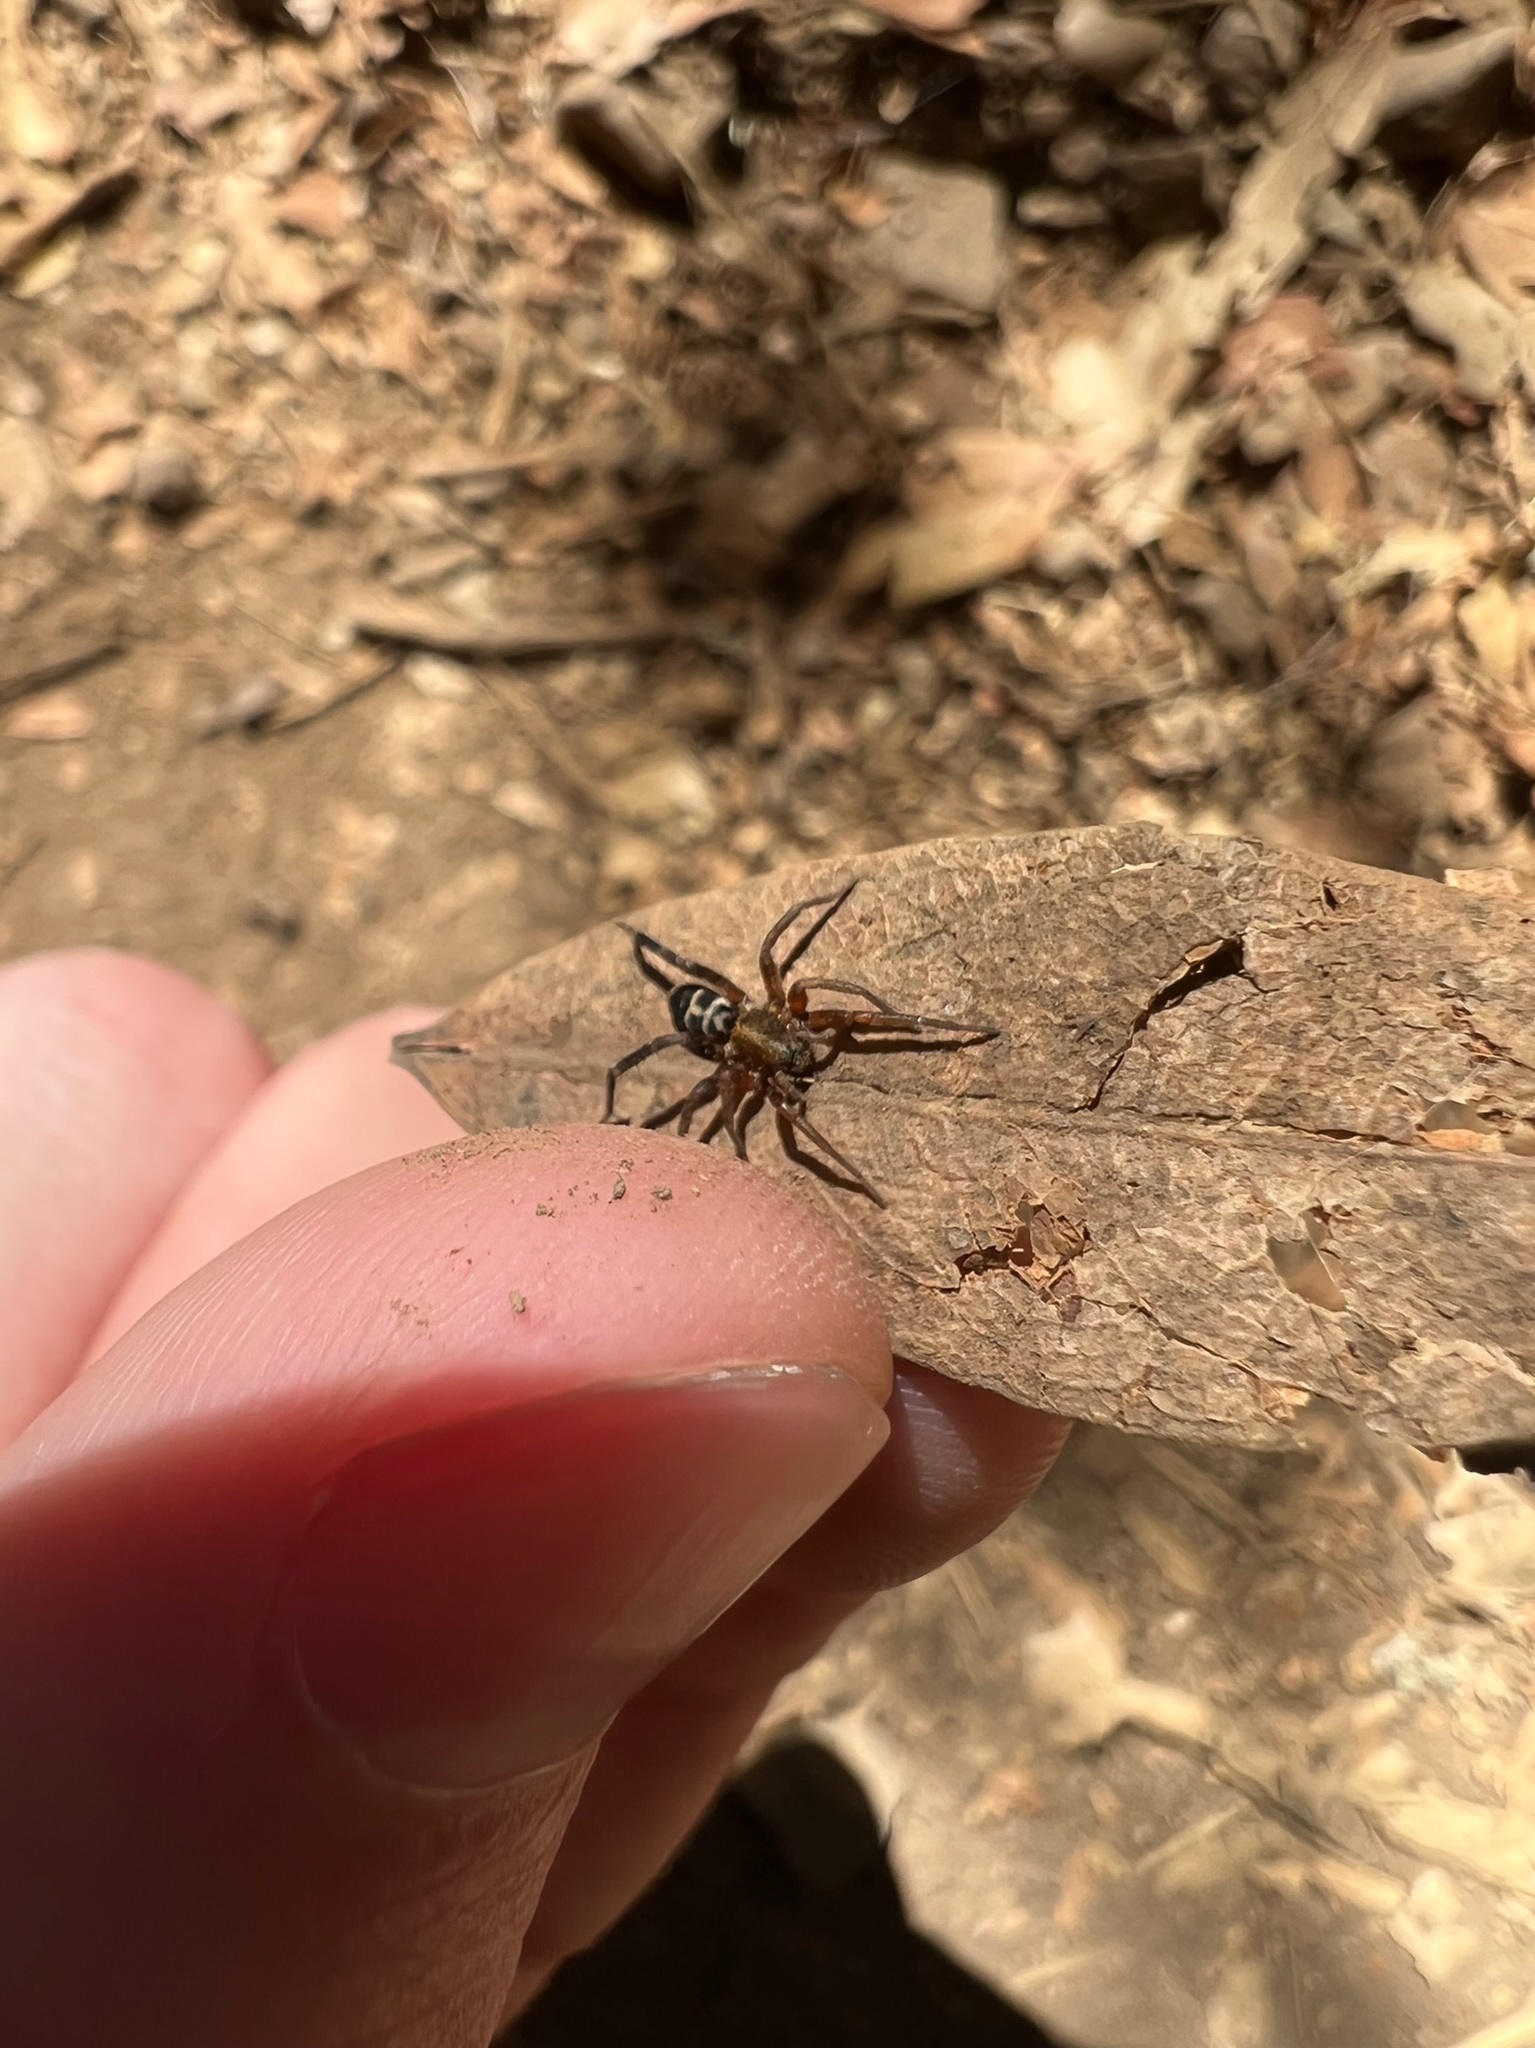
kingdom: Animalia
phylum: Arthropoda
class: Arachnida
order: Araneae
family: Corinnidae
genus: Castianeira
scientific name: Castianeira thalia
